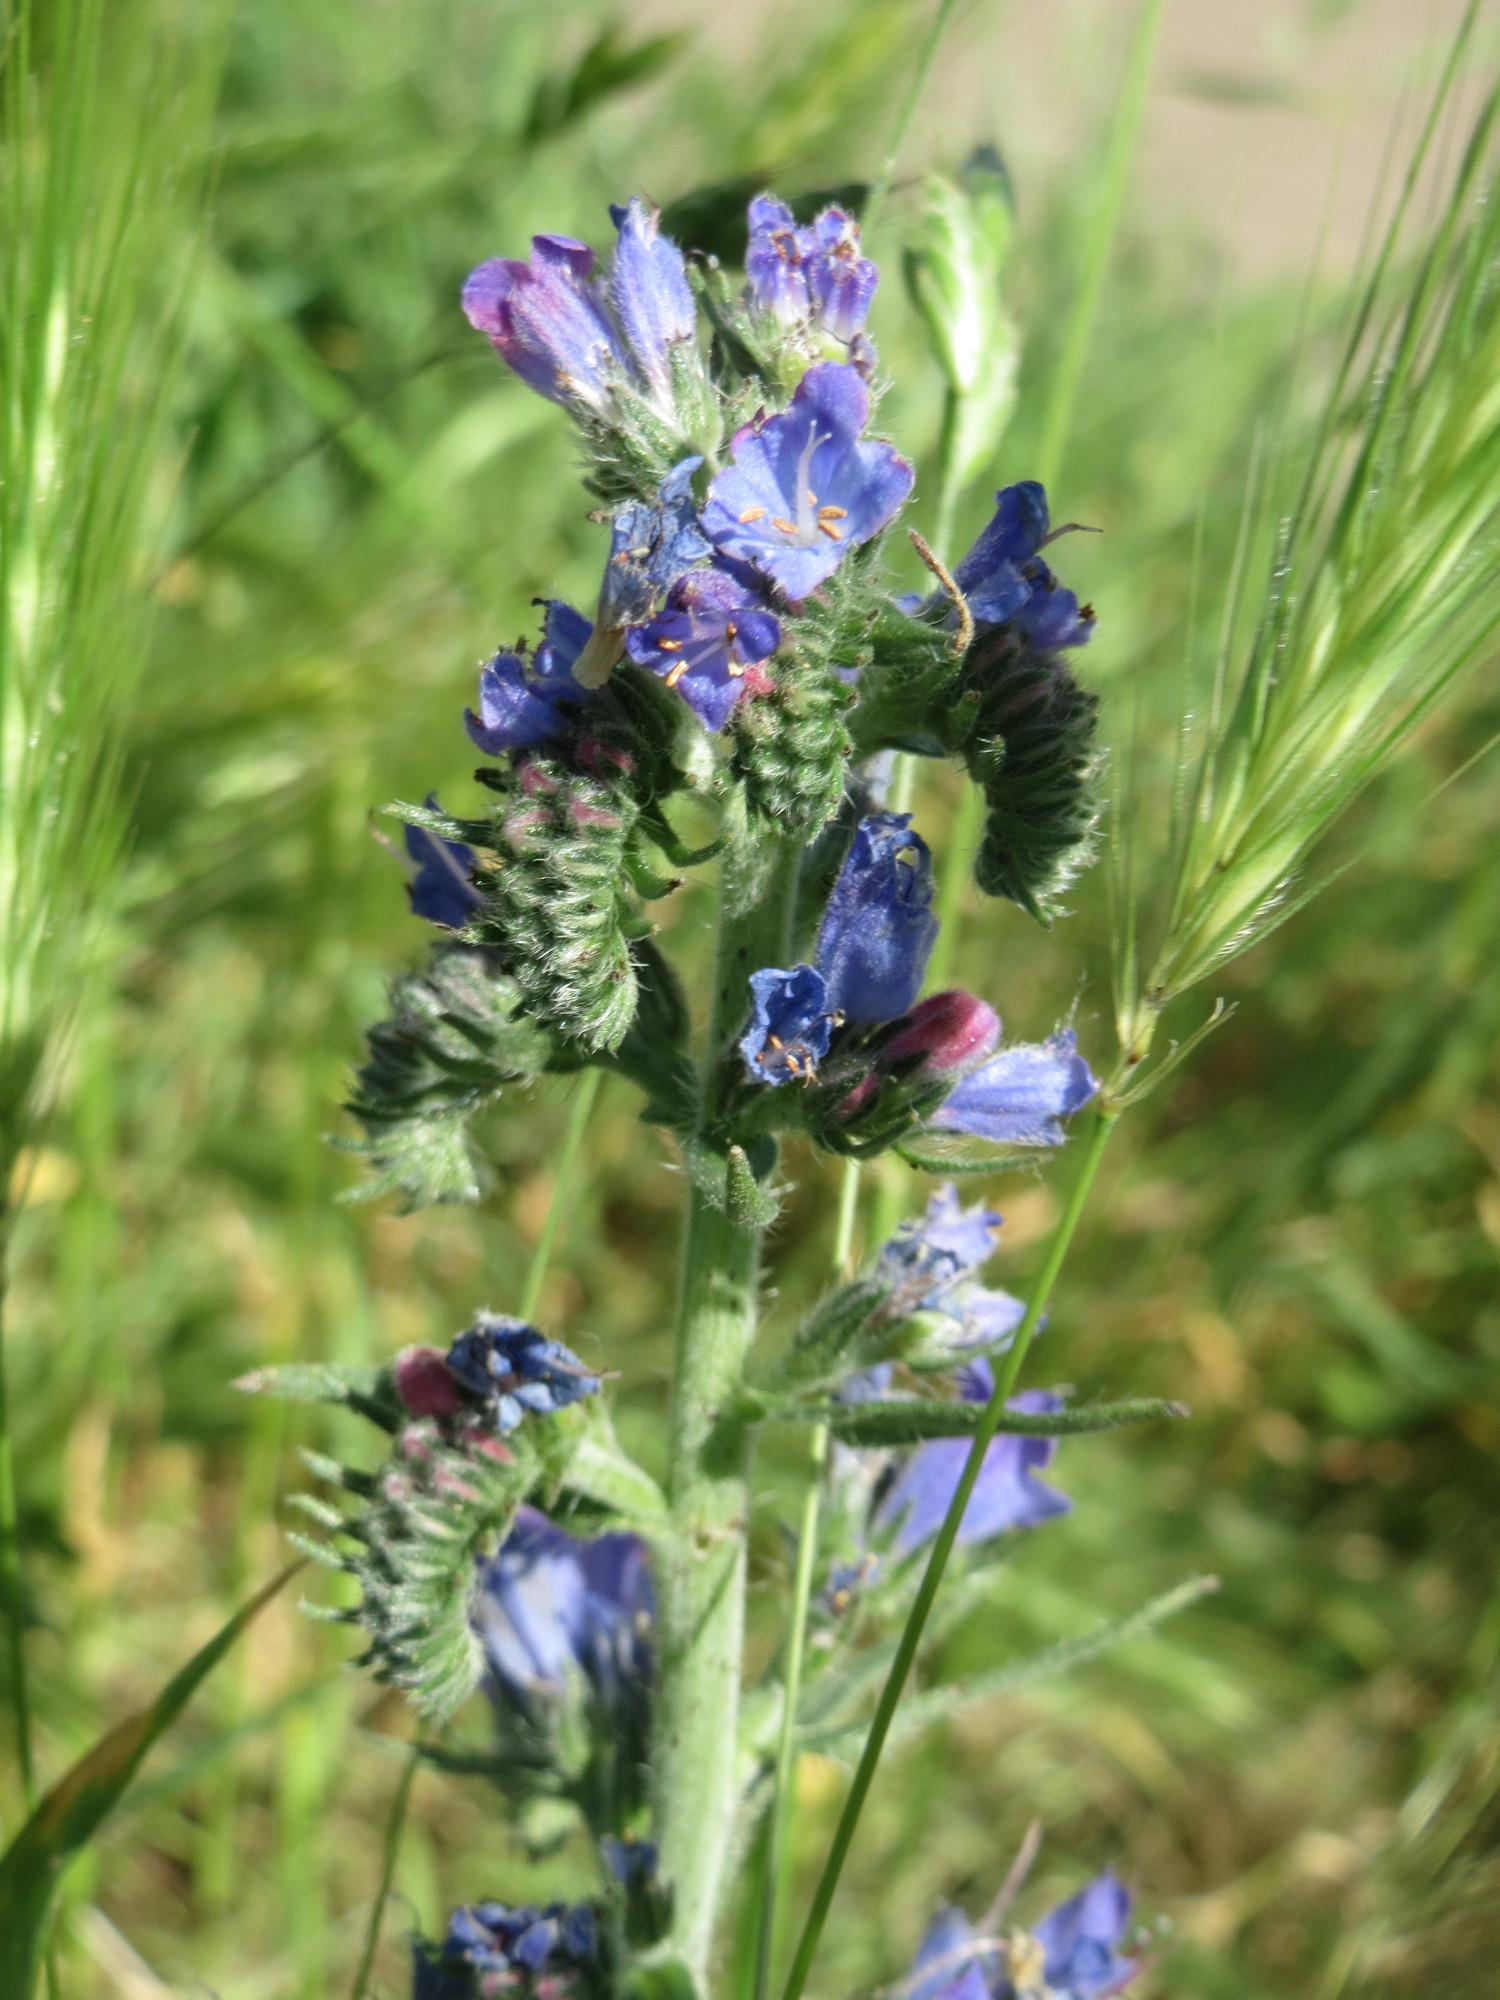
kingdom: Plantae
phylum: Tracheophyta
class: Magnoliopsida
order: Boraginales
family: Boraginaceae
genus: Echium
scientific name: Echium vulgare
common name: Common viper's bugloss
